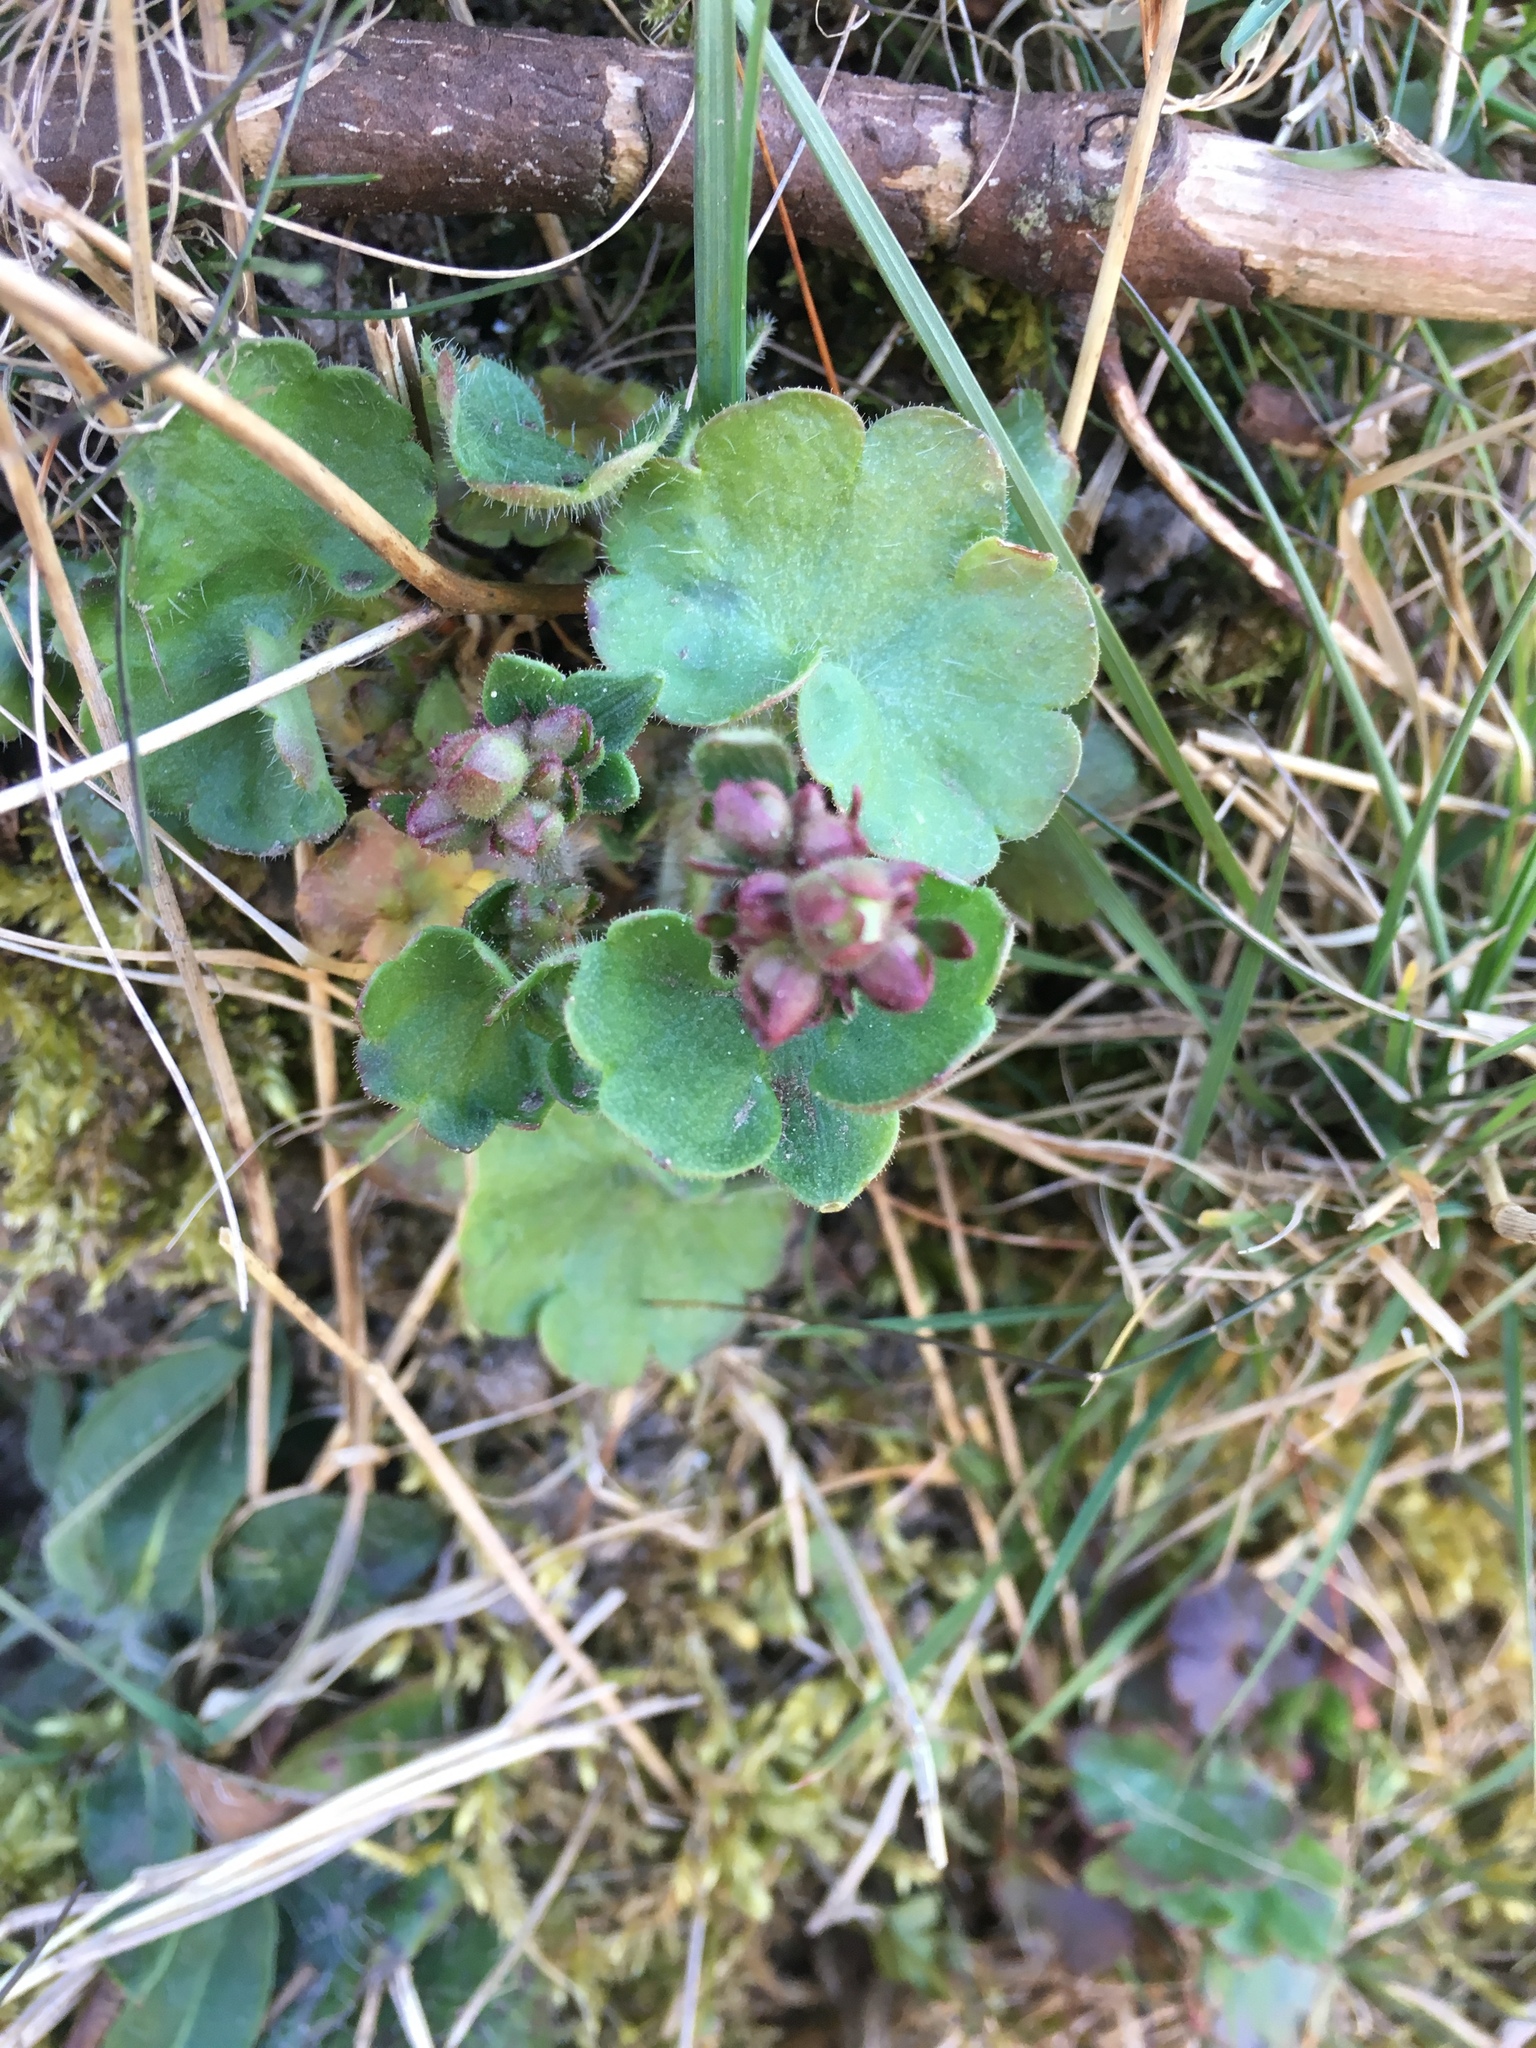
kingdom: Plantae
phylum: Tracheophyta
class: Magnoliopsida
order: Saxifragales
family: Saxifragaceae
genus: Saxifraga
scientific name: Saxifraga granulata
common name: Meadow saxifrage
